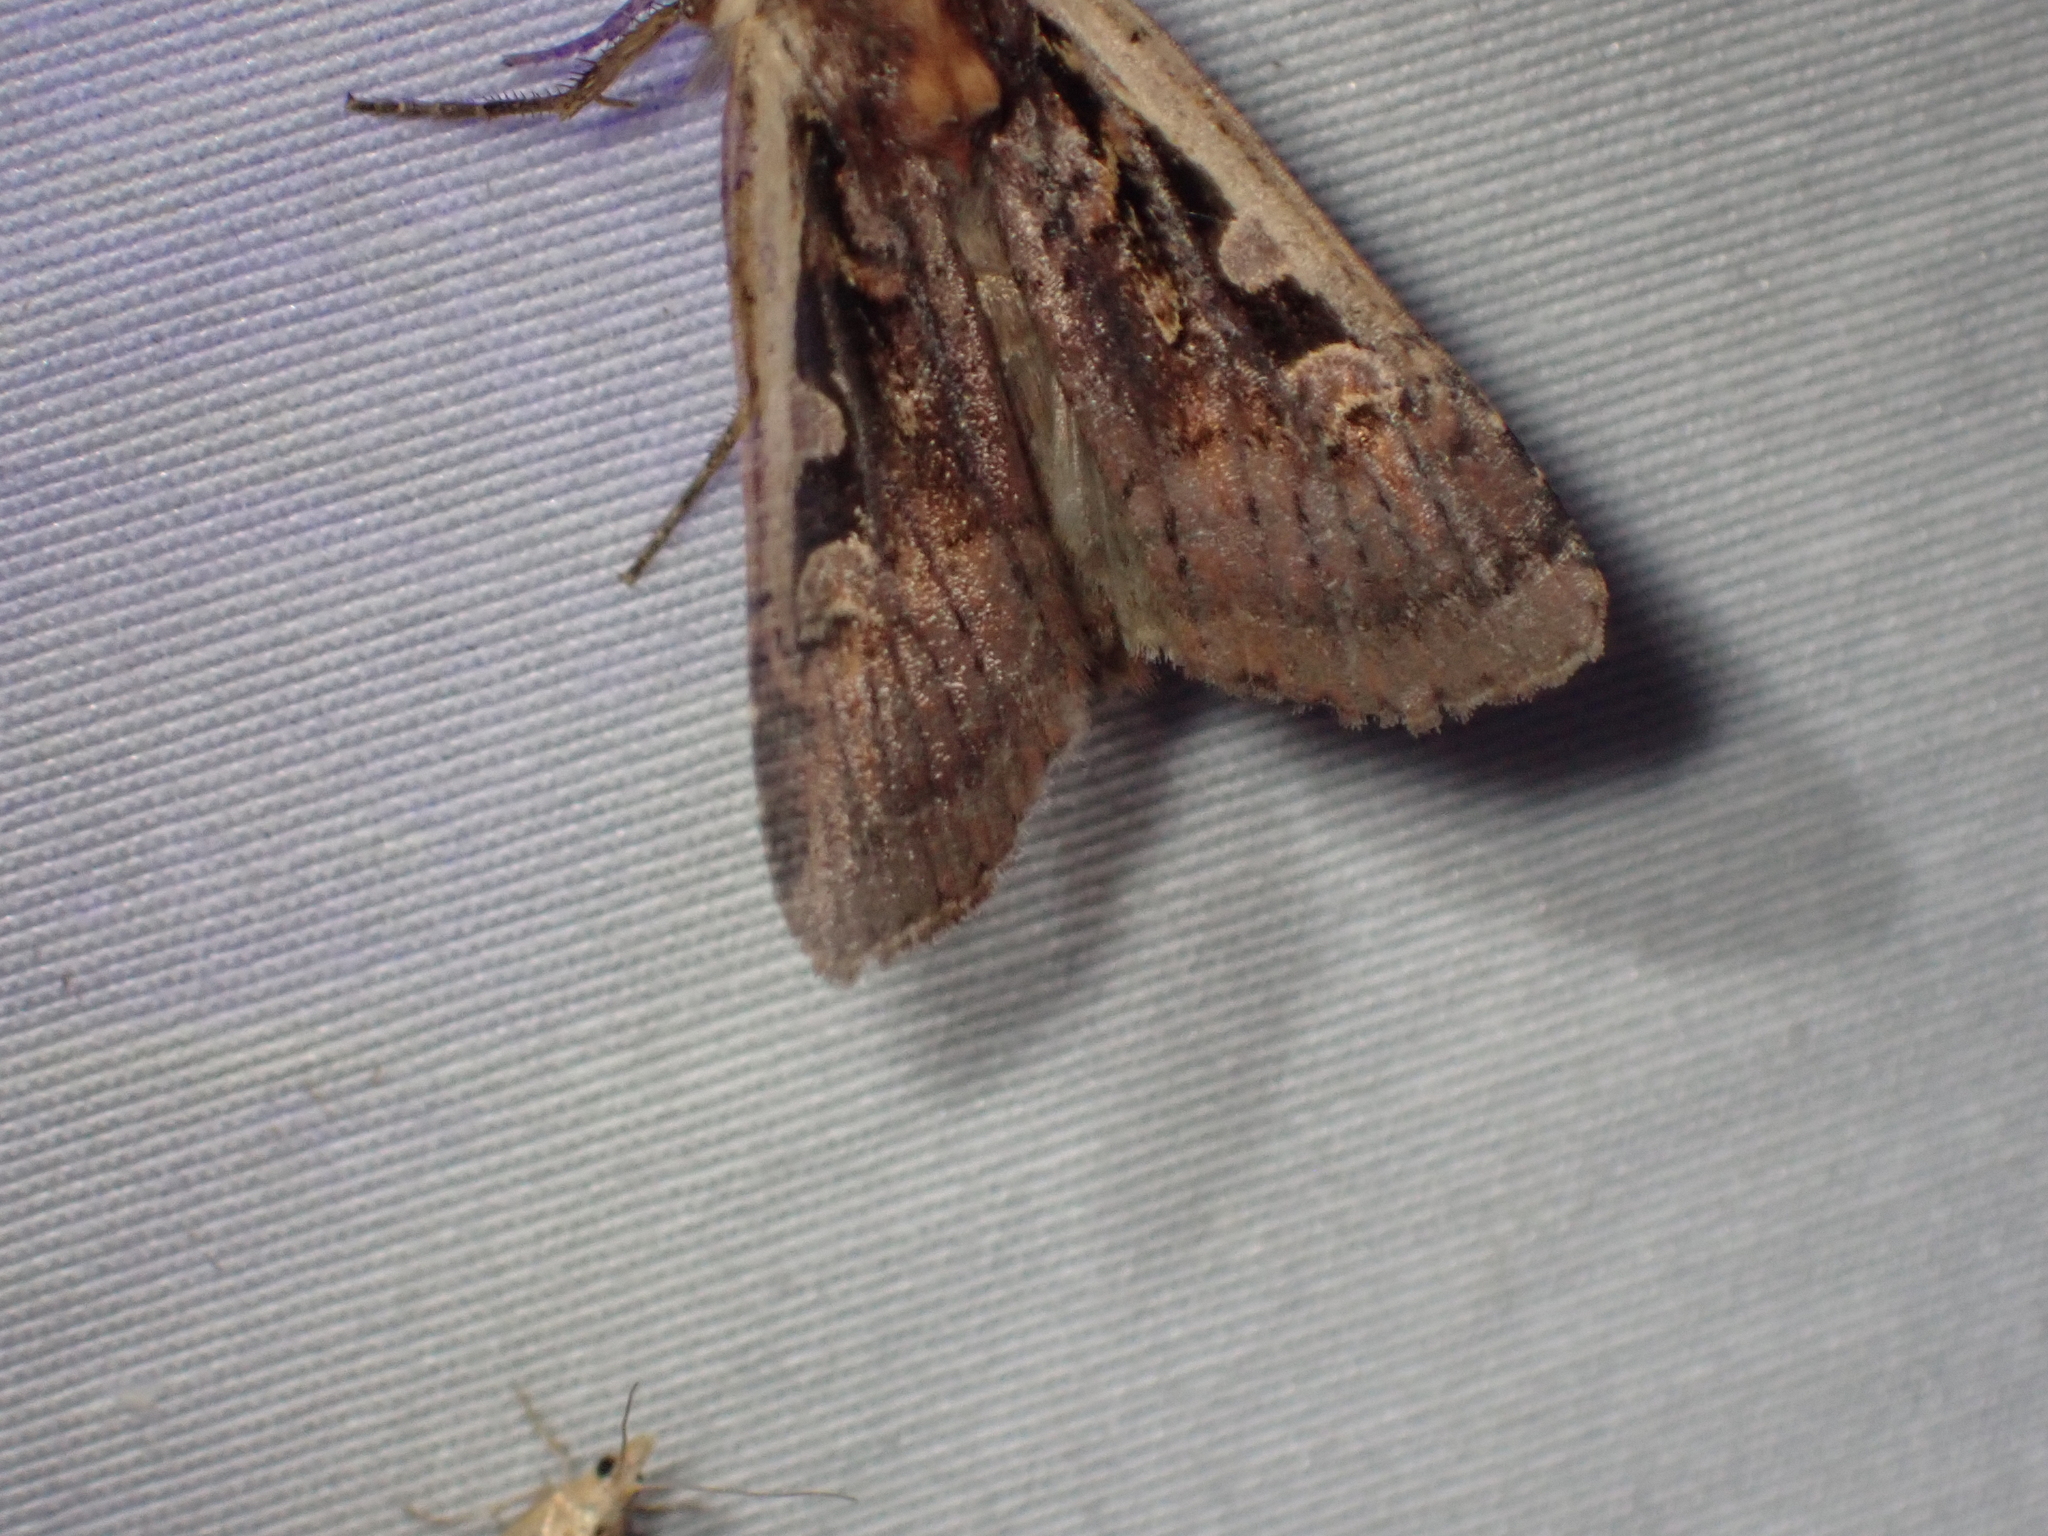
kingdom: Animalia
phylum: Arthropoda
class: Insecta
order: Lepidoptera
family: Noctuidae
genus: Parabagrotis
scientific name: Parabagrotis sulinaris
